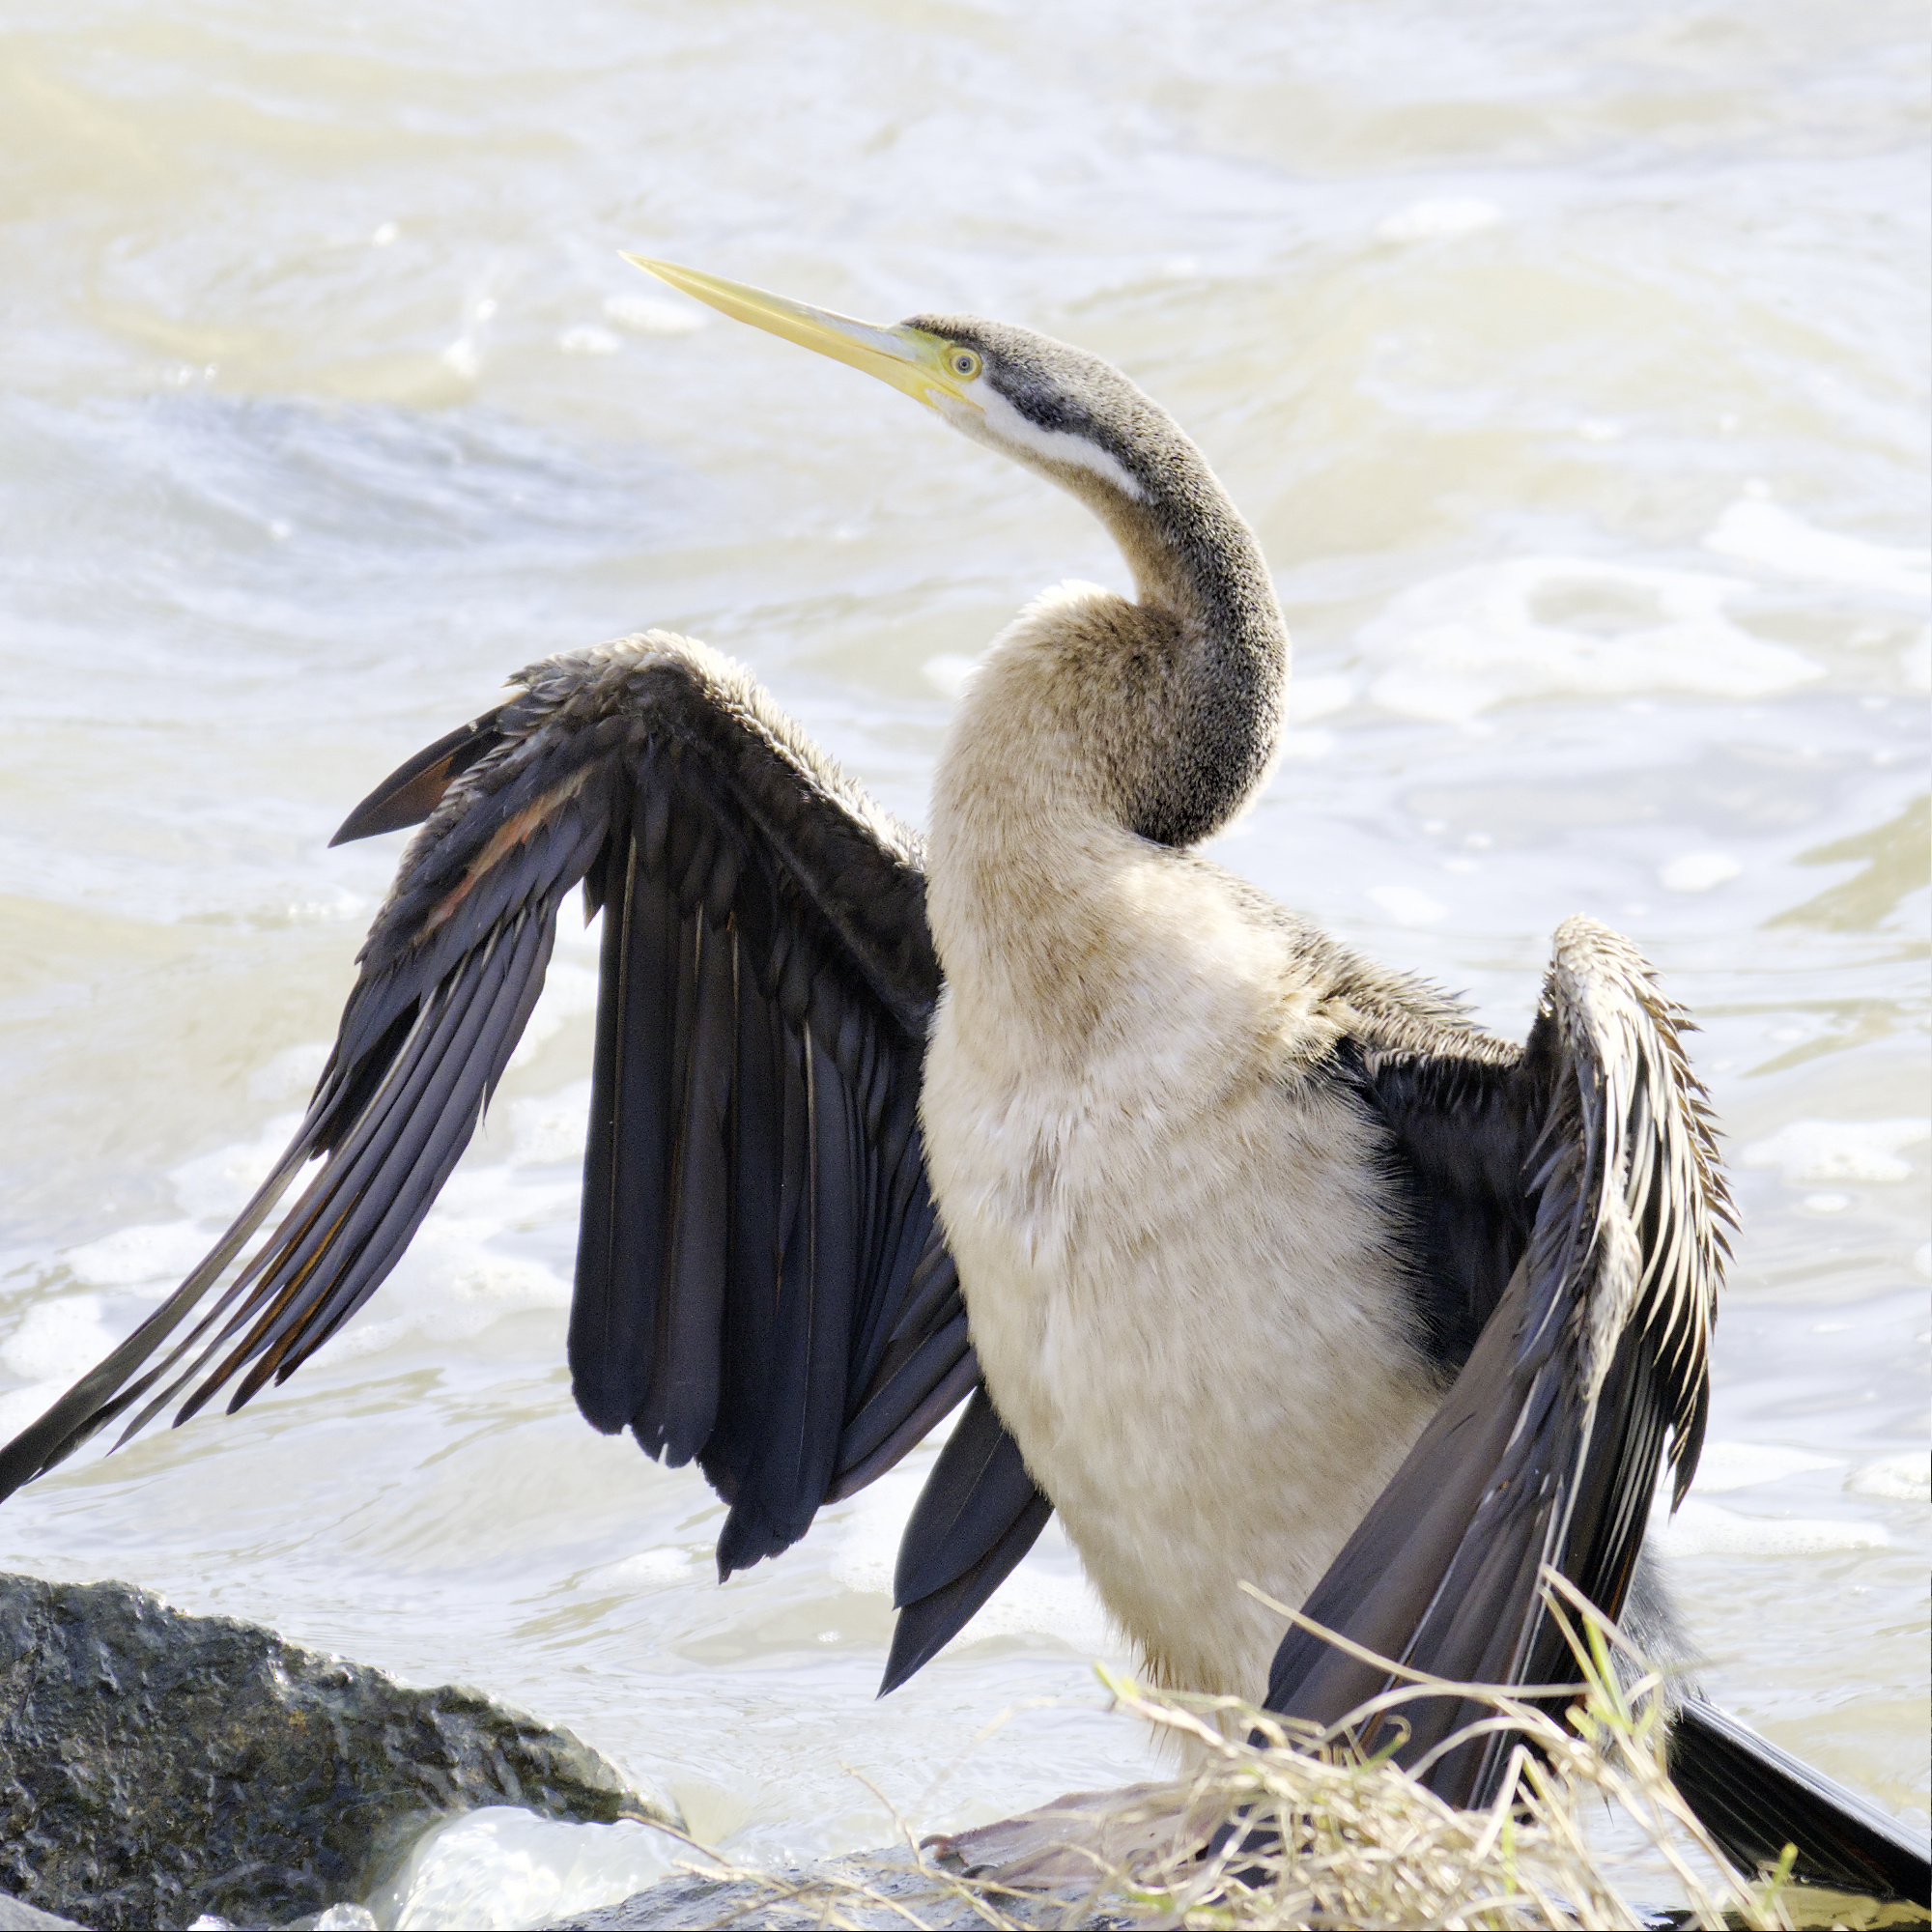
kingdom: Animalia
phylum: Chordata
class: Aves
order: Suliformes
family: Anhingidae
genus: Anhinga
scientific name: Anhinga novaehollandiae
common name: Australasian darter
